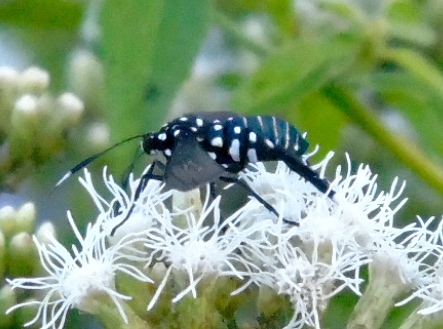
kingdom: Animalia
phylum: Arthropoda
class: Insecta
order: Lepidoptera
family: Erebidae
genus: Horama
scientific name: Horama plumipes
